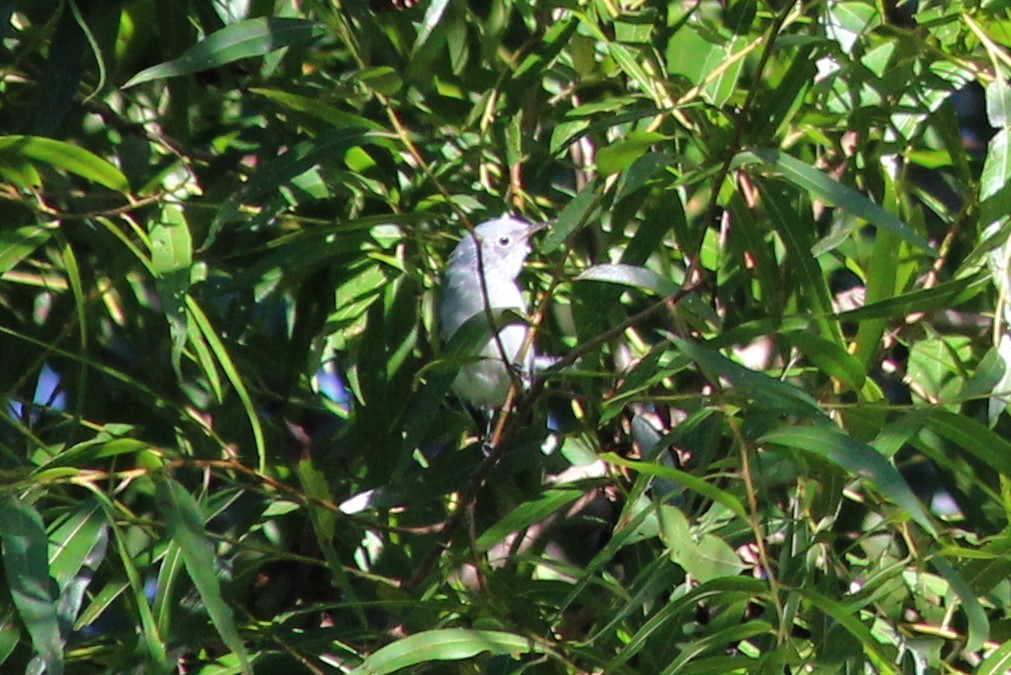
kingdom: Animalia
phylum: Chordata
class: Aves
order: Passeriformes
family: Polioptilidae
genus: Polioptila
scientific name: Polioptila caerulea
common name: Blue-gray gnatcatcher
